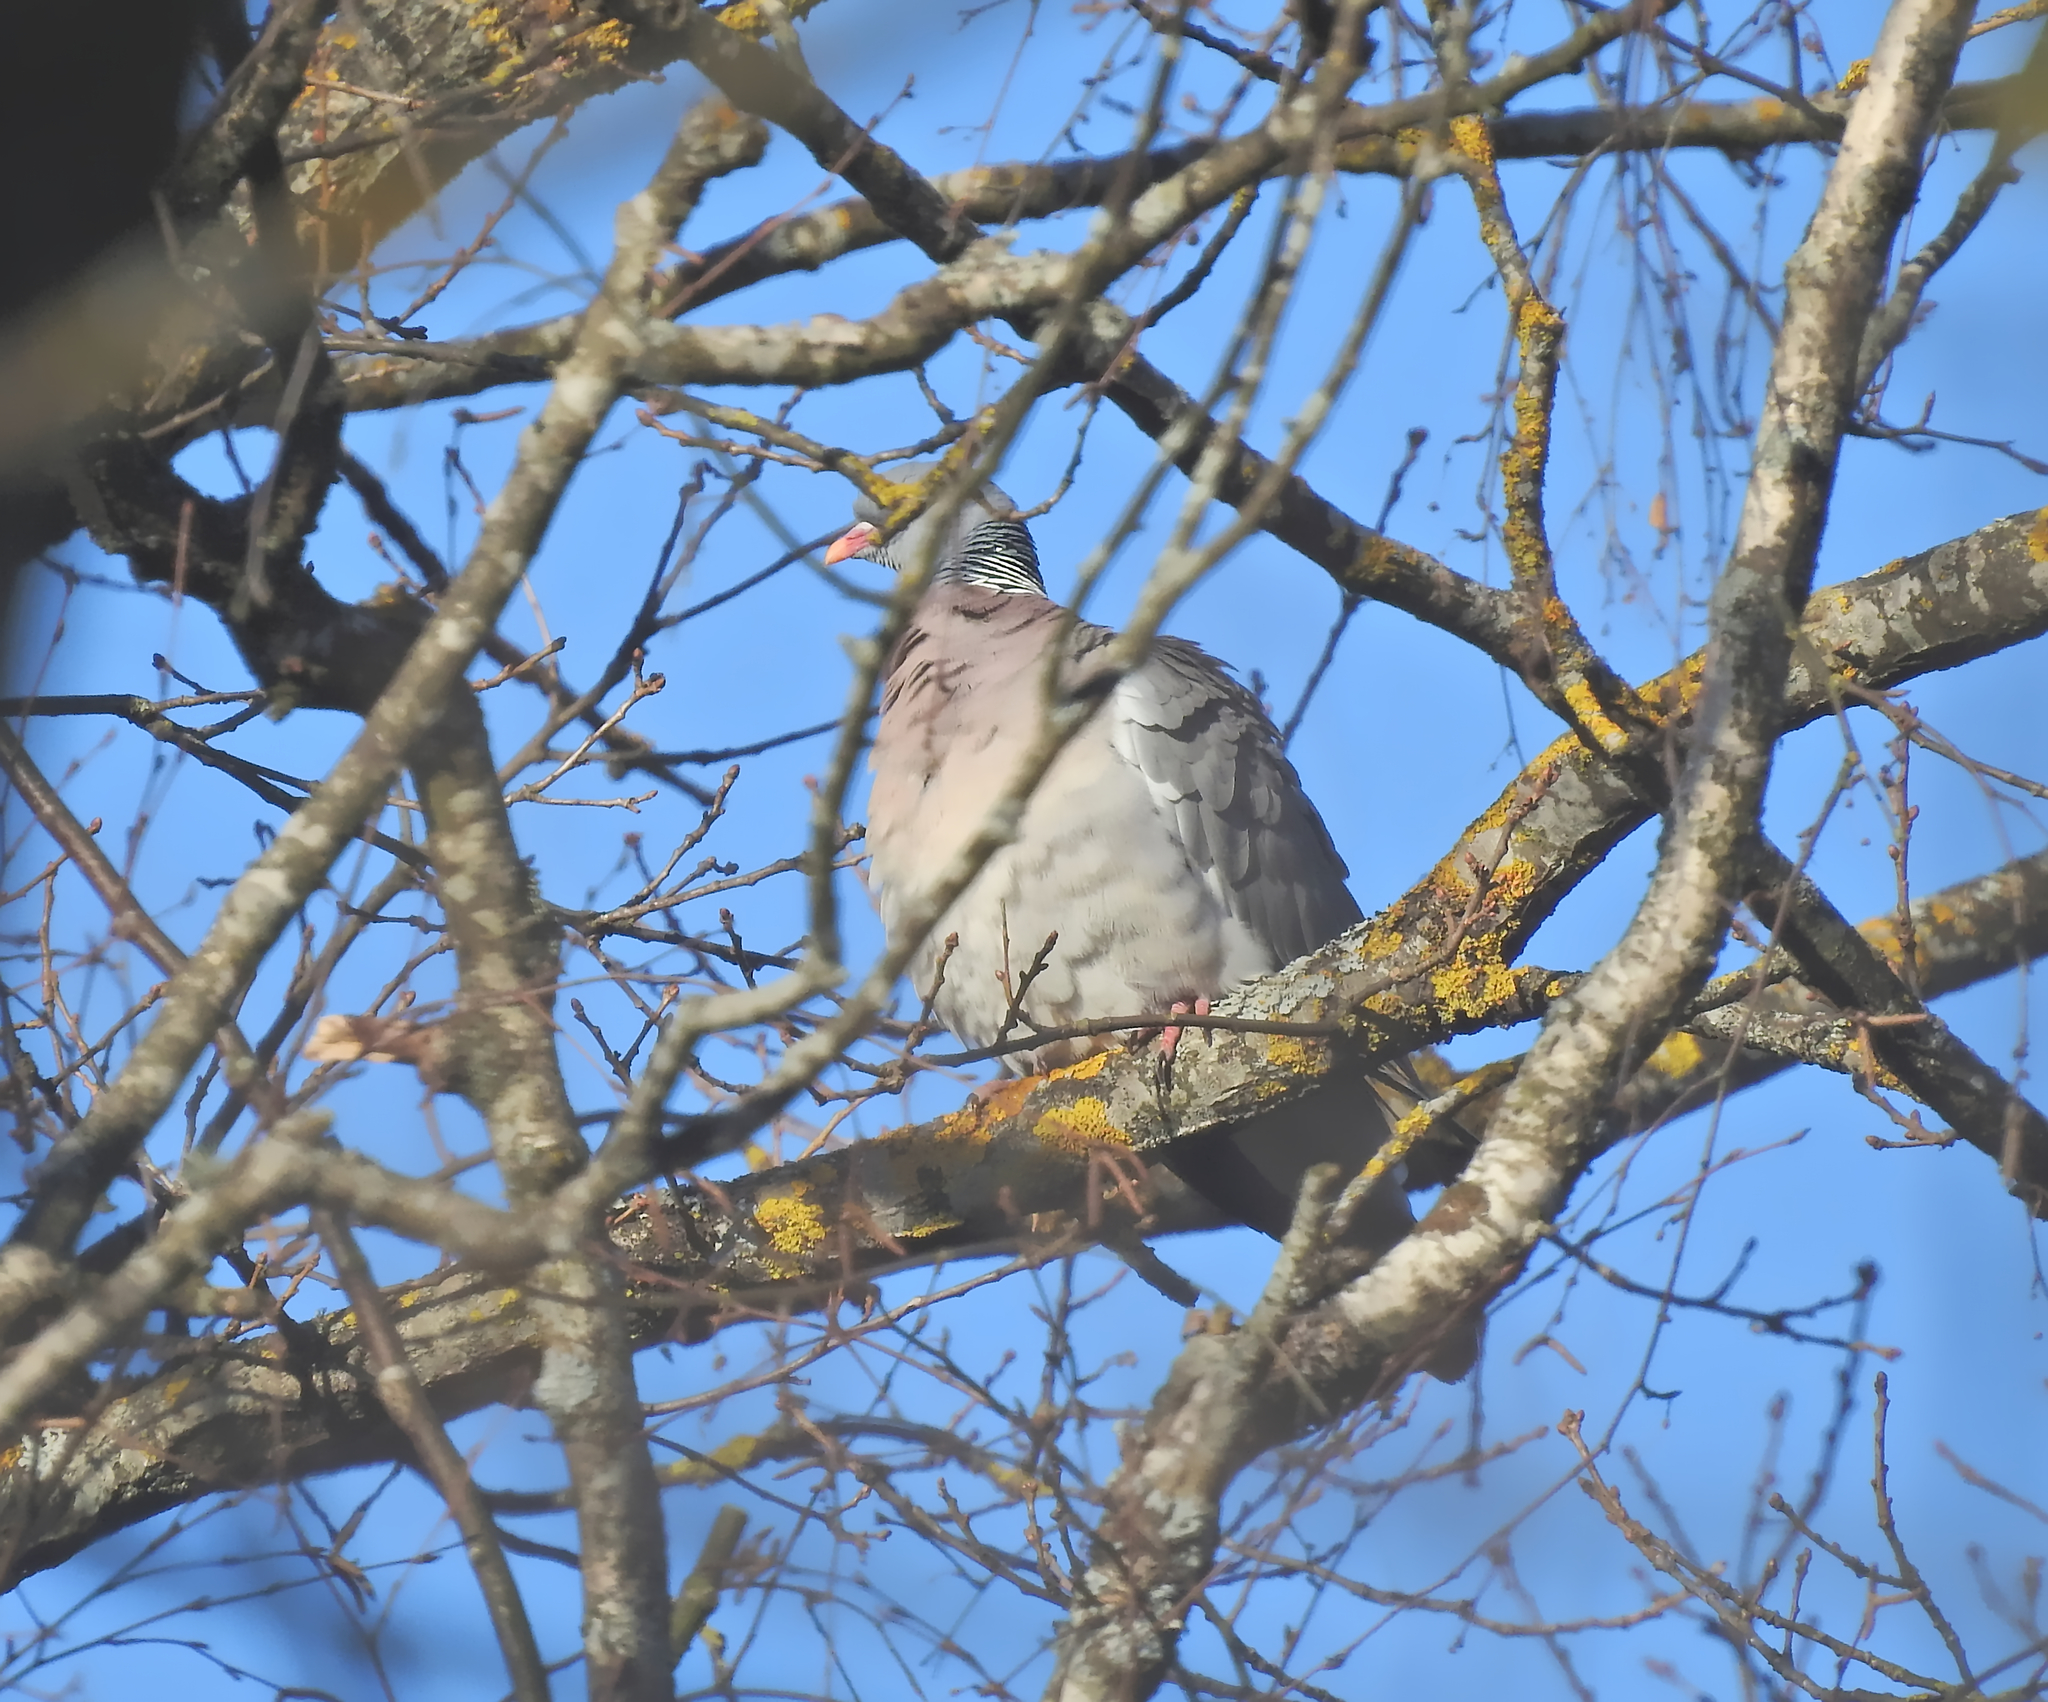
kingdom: Animalia
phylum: Chordata
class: Aves
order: Columbiformes
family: Columbidae
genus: Columba
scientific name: Columba palumbus
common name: Common wood pigeon
